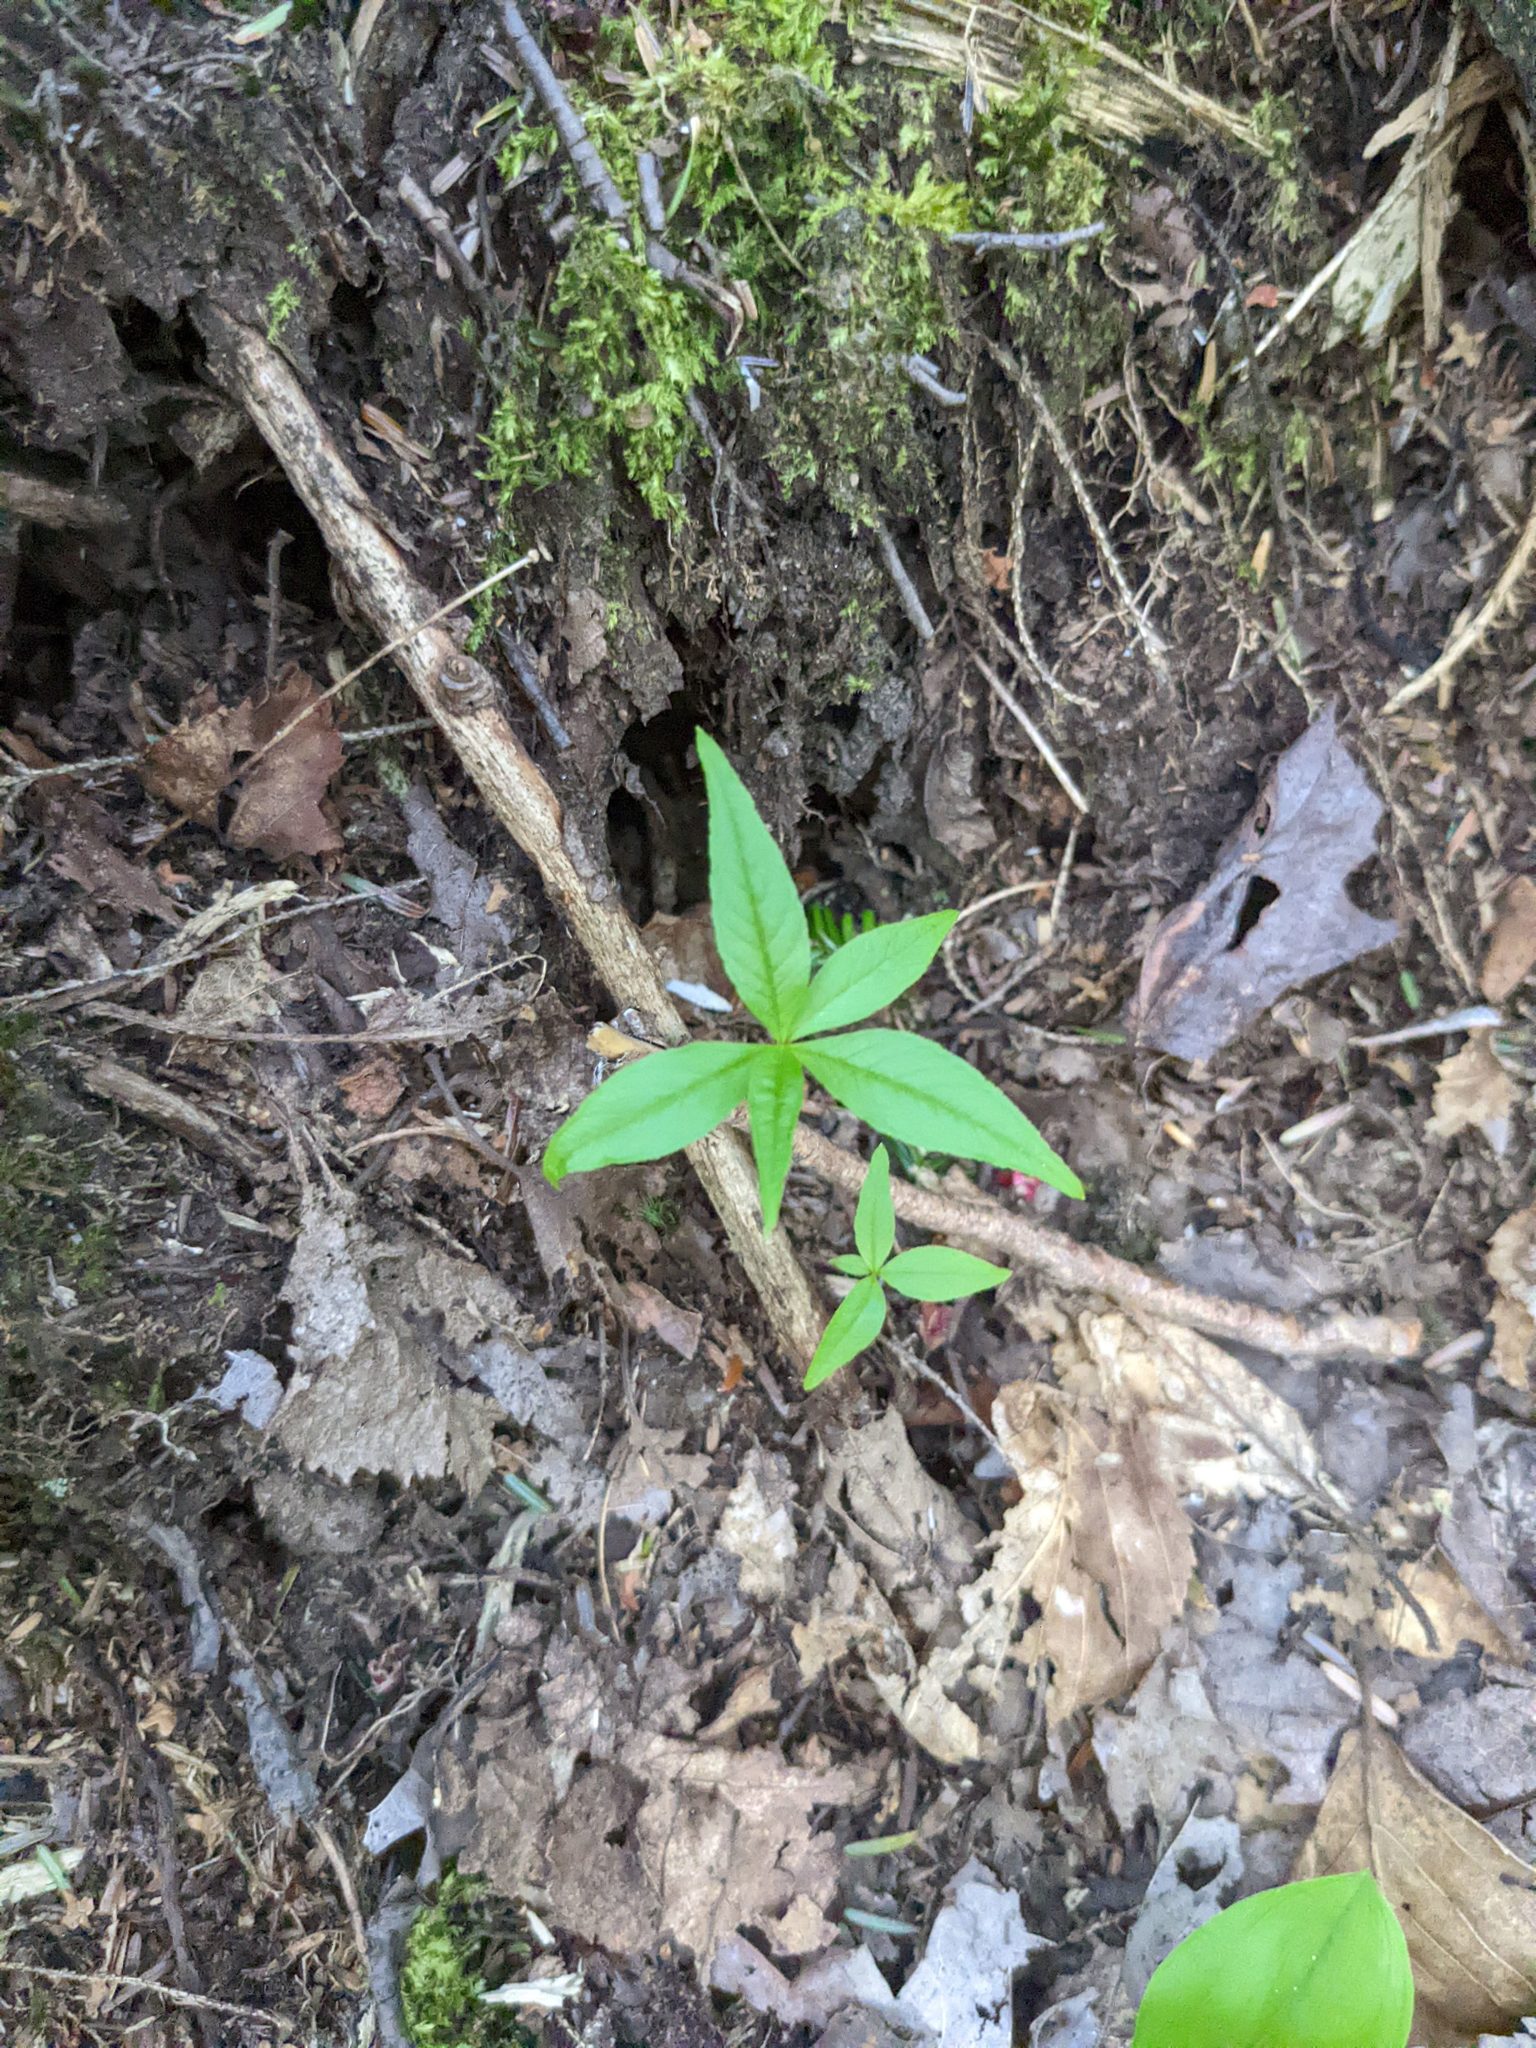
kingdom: Plantae
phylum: Tracheophyta
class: Magnoliopsida
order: Ericales
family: Primulaceae
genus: Lysimachia
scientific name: Lysimachia borealis
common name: American starflower
